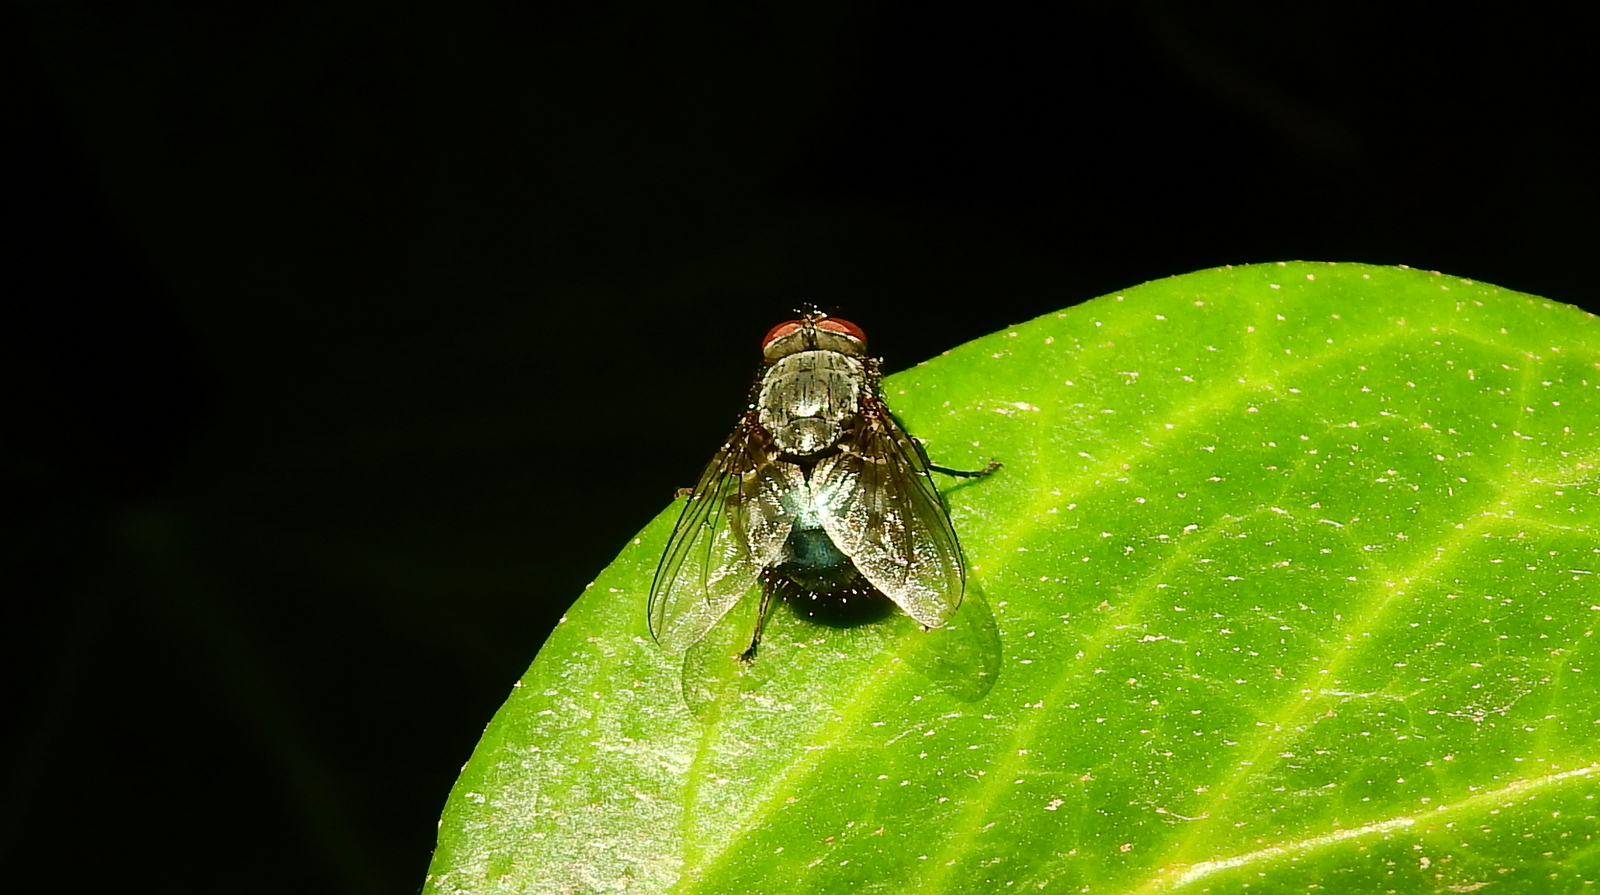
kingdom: Animalia
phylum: Arthropoda
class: Insecta
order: Diptera
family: Calliphoridae
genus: Calliphora
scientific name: Calliphora vicina
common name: Common blow flie
